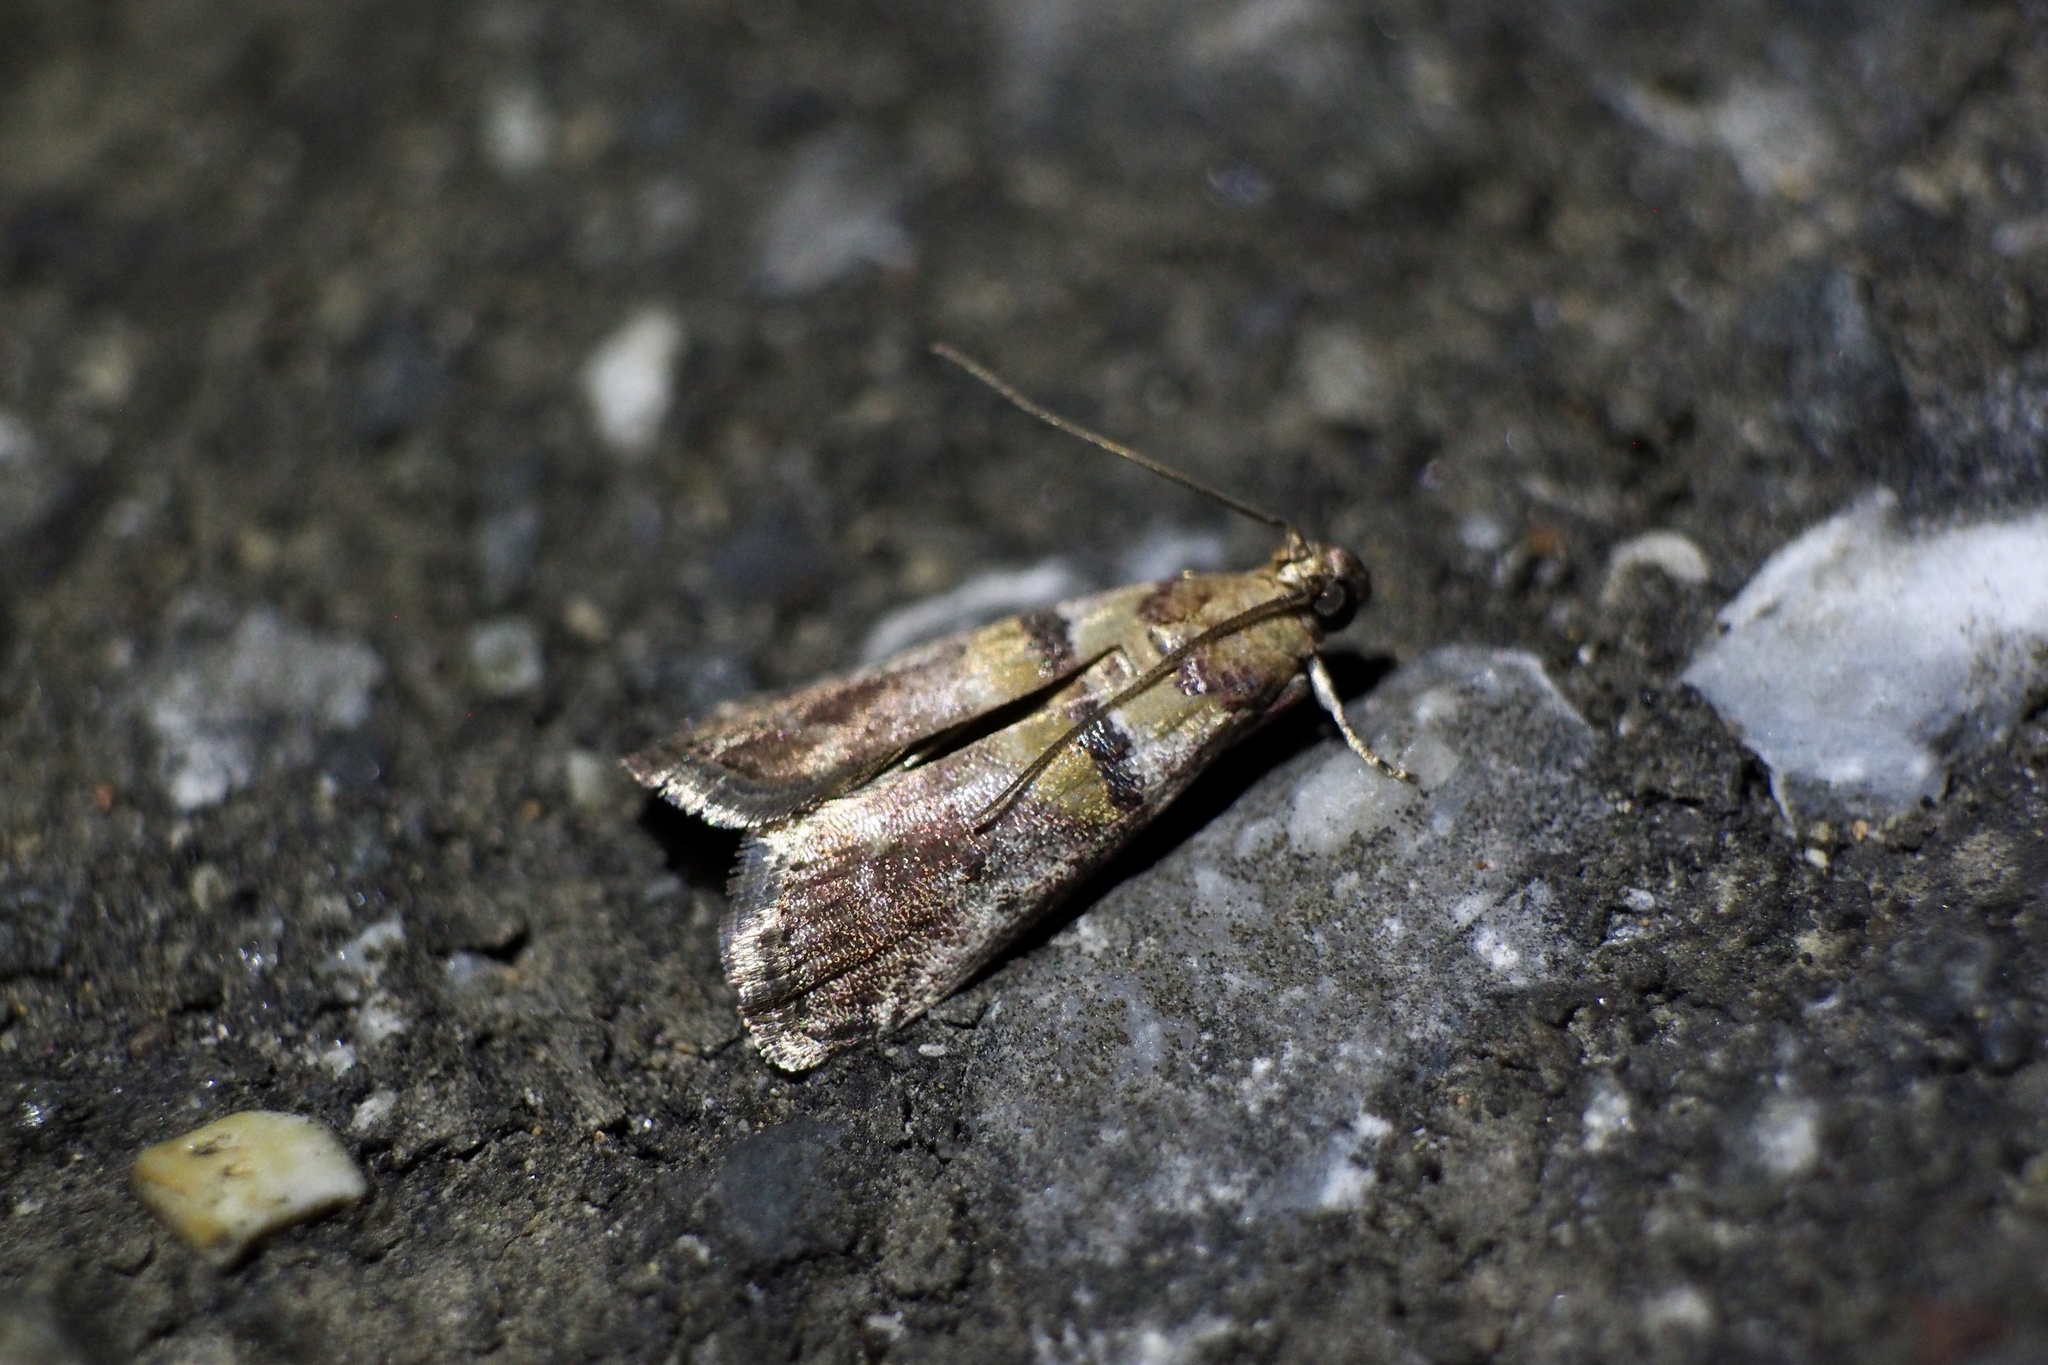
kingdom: Animalia
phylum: Arthropoda
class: Insecta
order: Lepidoptera
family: Pyralidae
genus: Acrobasis
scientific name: Acrobasis tricolorella
